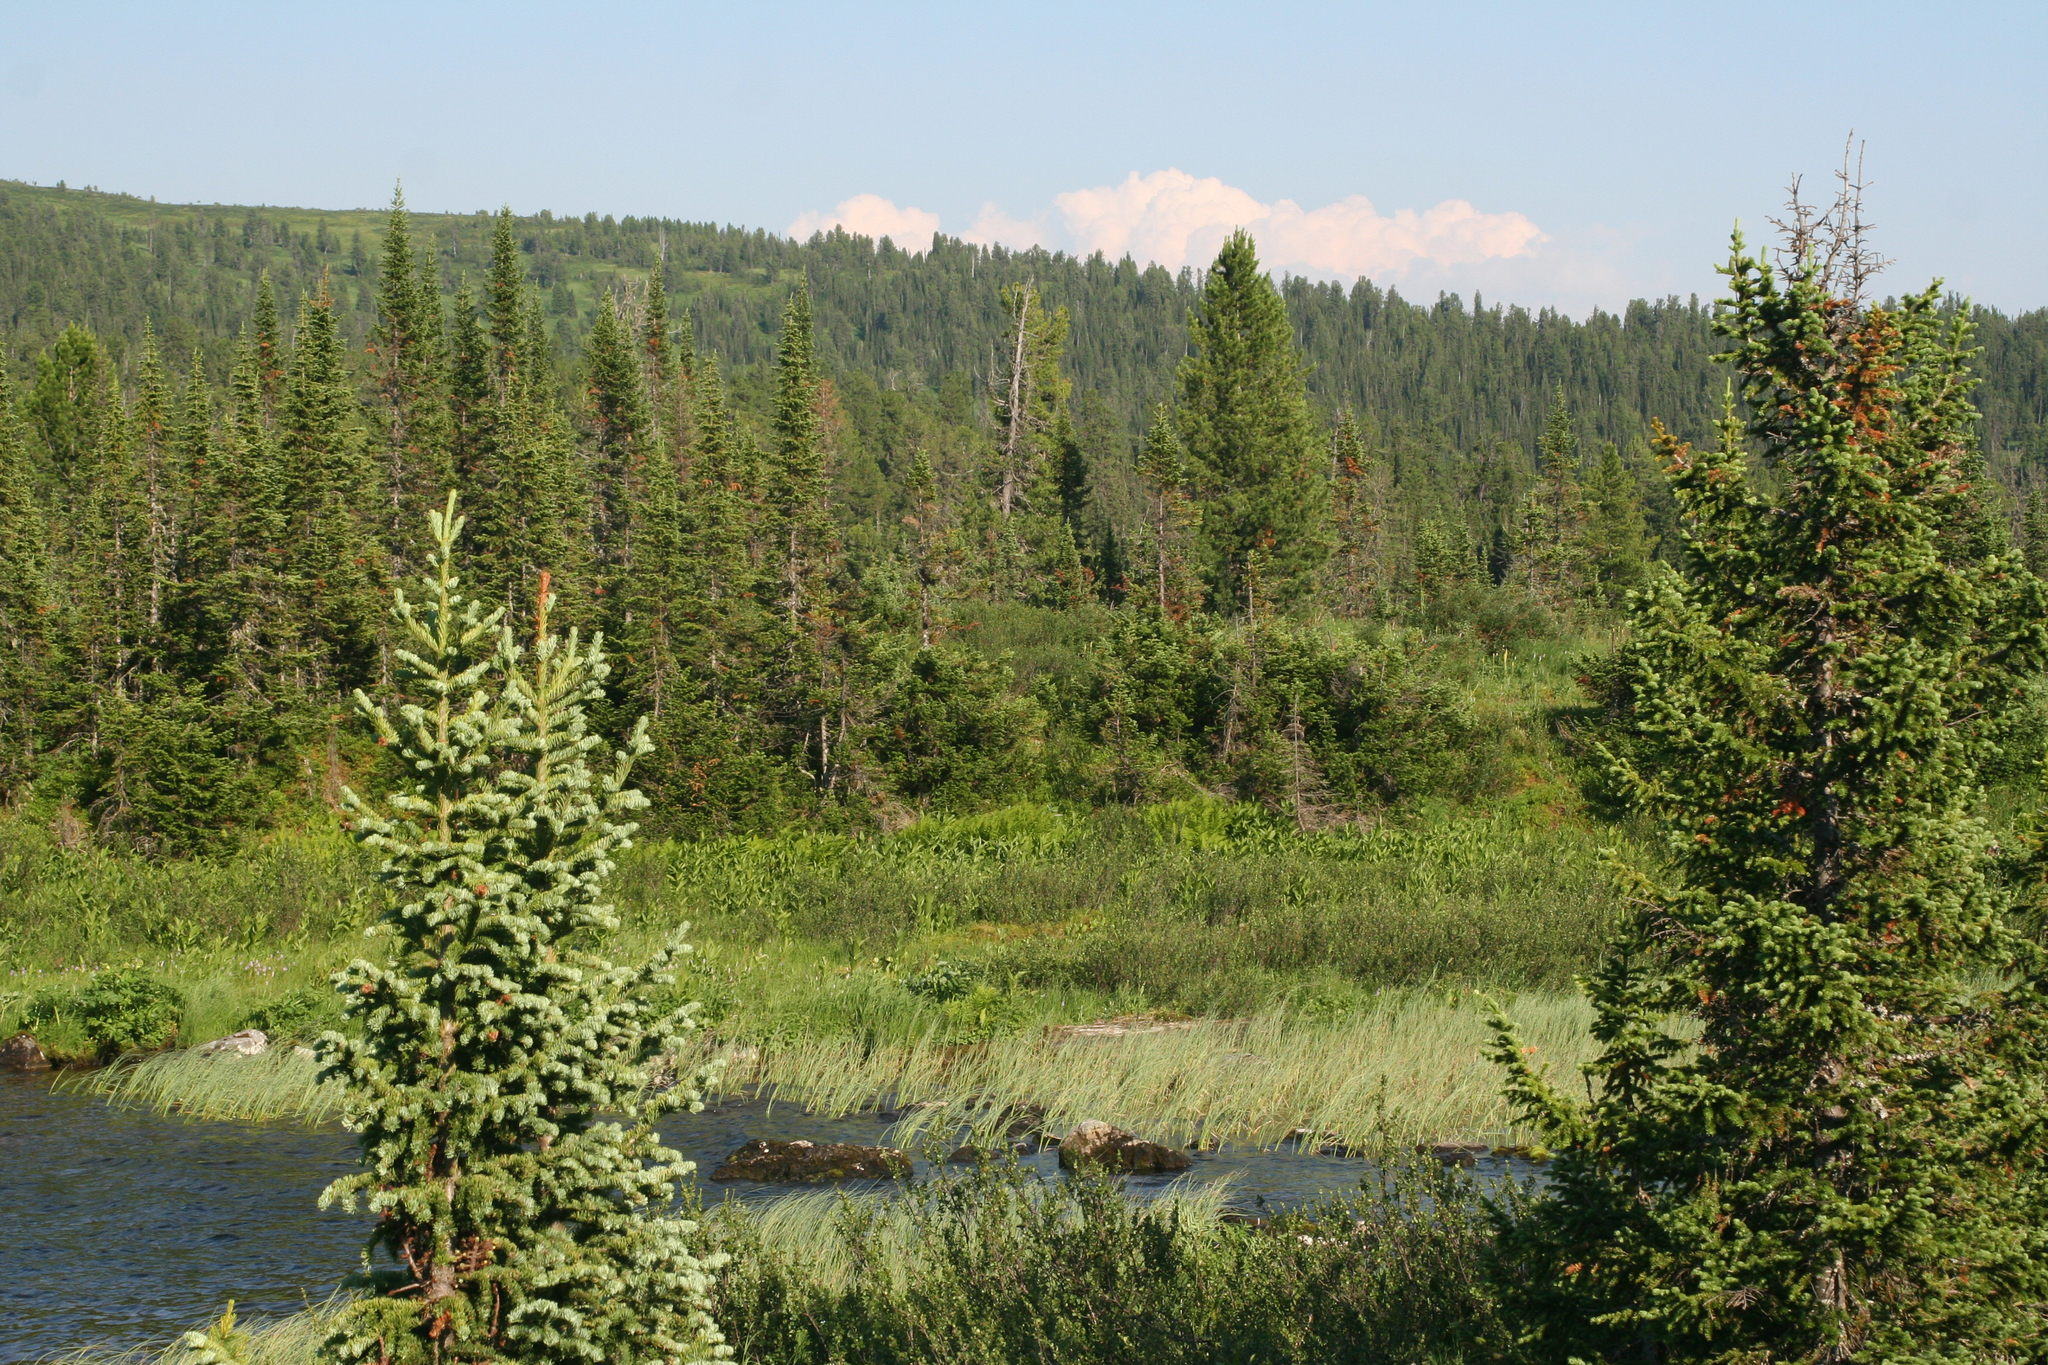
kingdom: Plantae
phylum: Tracheophyta
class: Pinopsida
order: Pinales
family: Pinaceae
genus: Abies
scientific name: Abies sibirica
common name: Siberian fir
